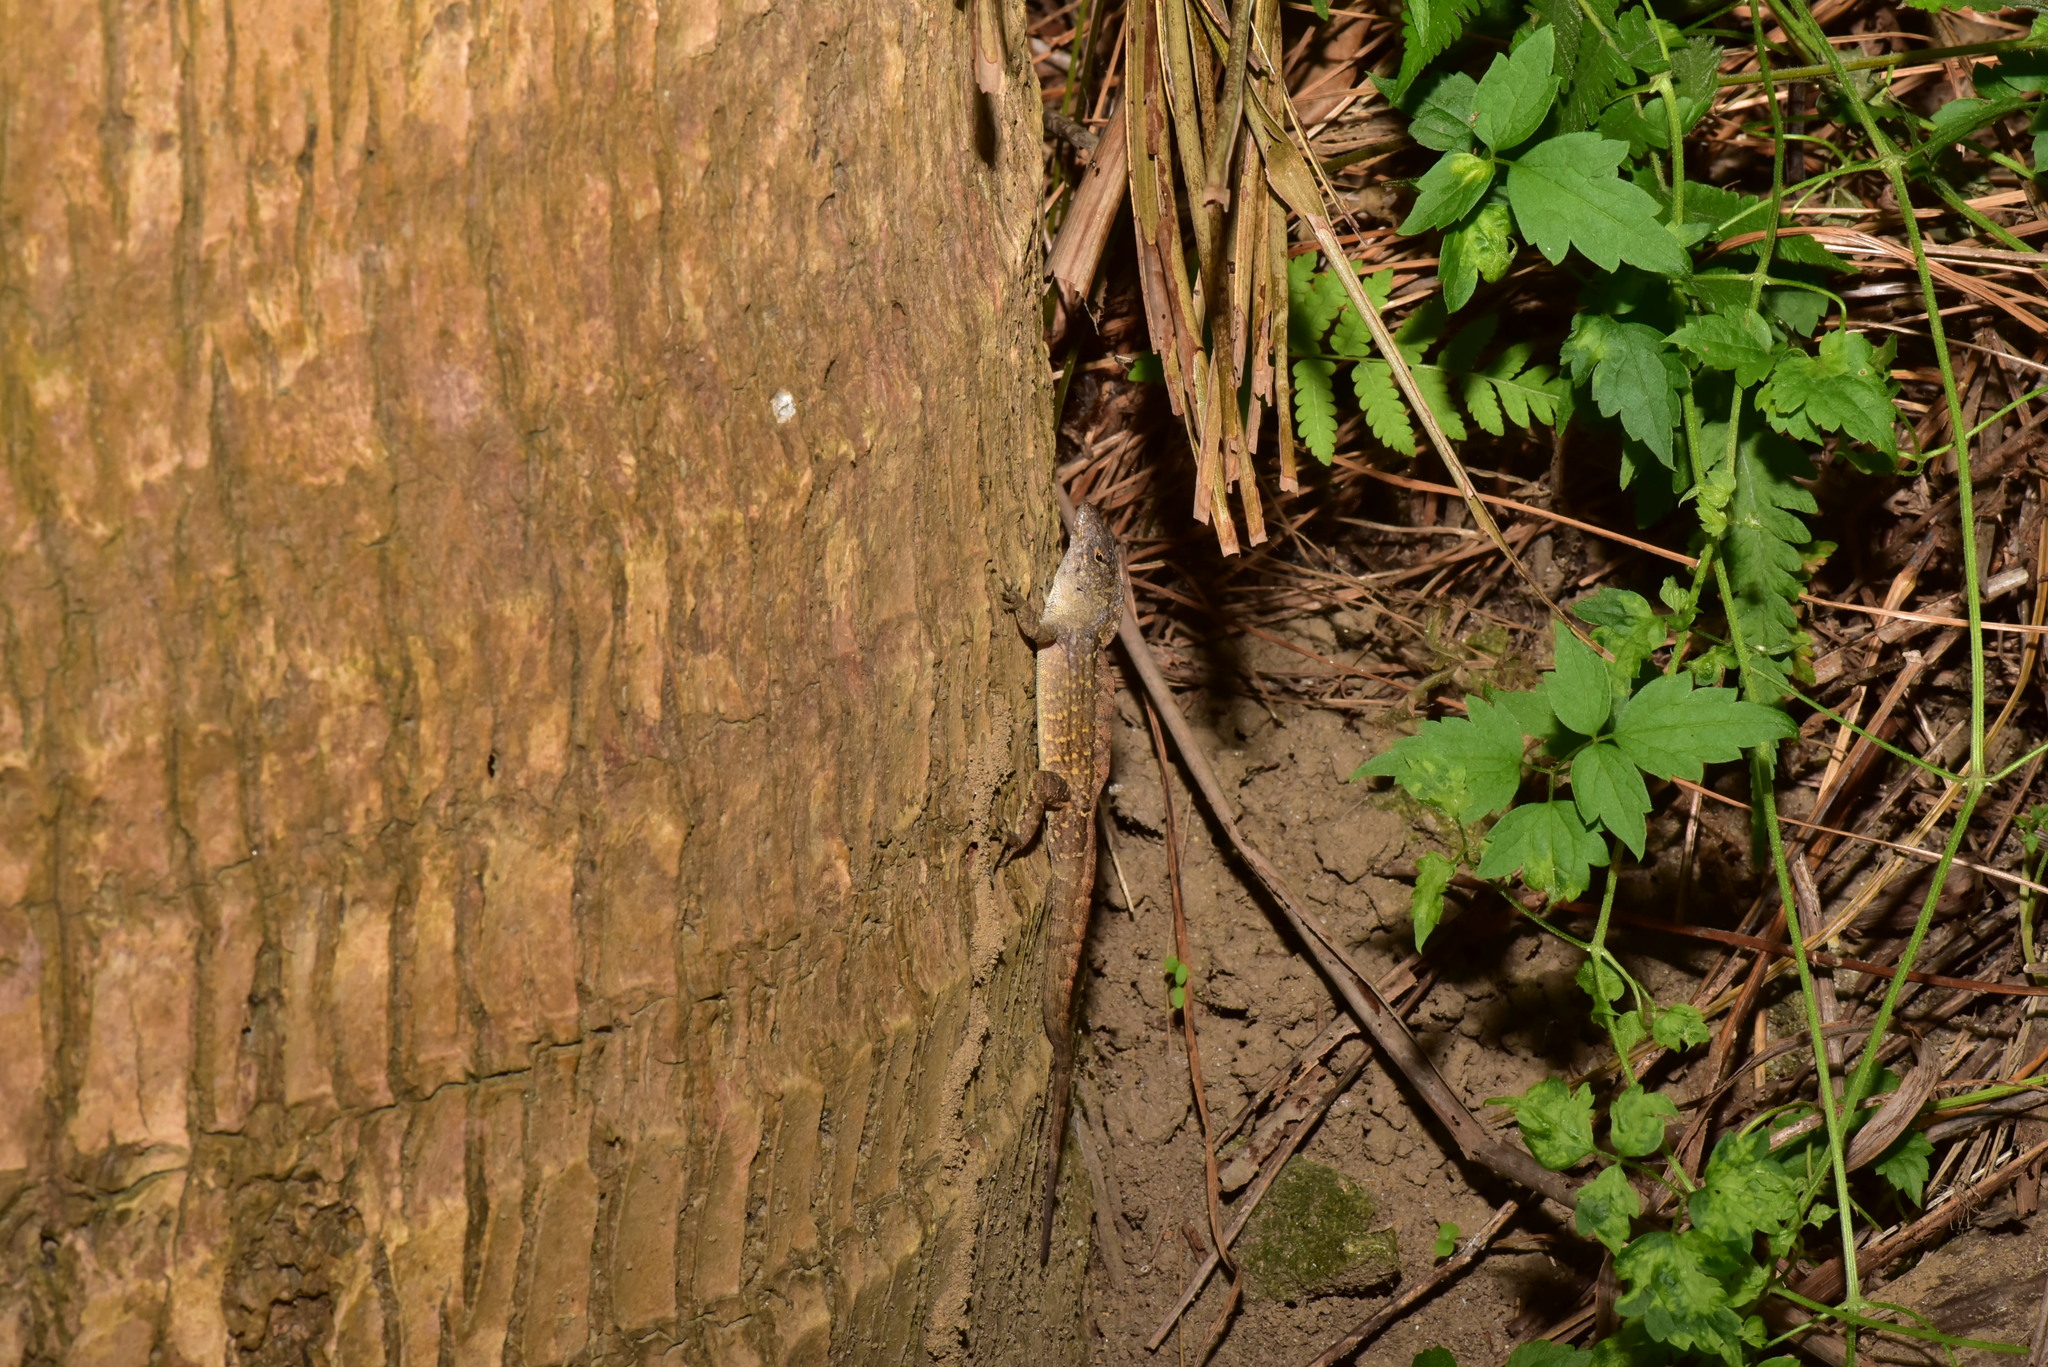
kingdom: Animalia
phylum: Chordata
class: Squamata
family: Dactyloidae
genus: Anolis
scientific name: Anolis sagrei
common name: Brown anole
